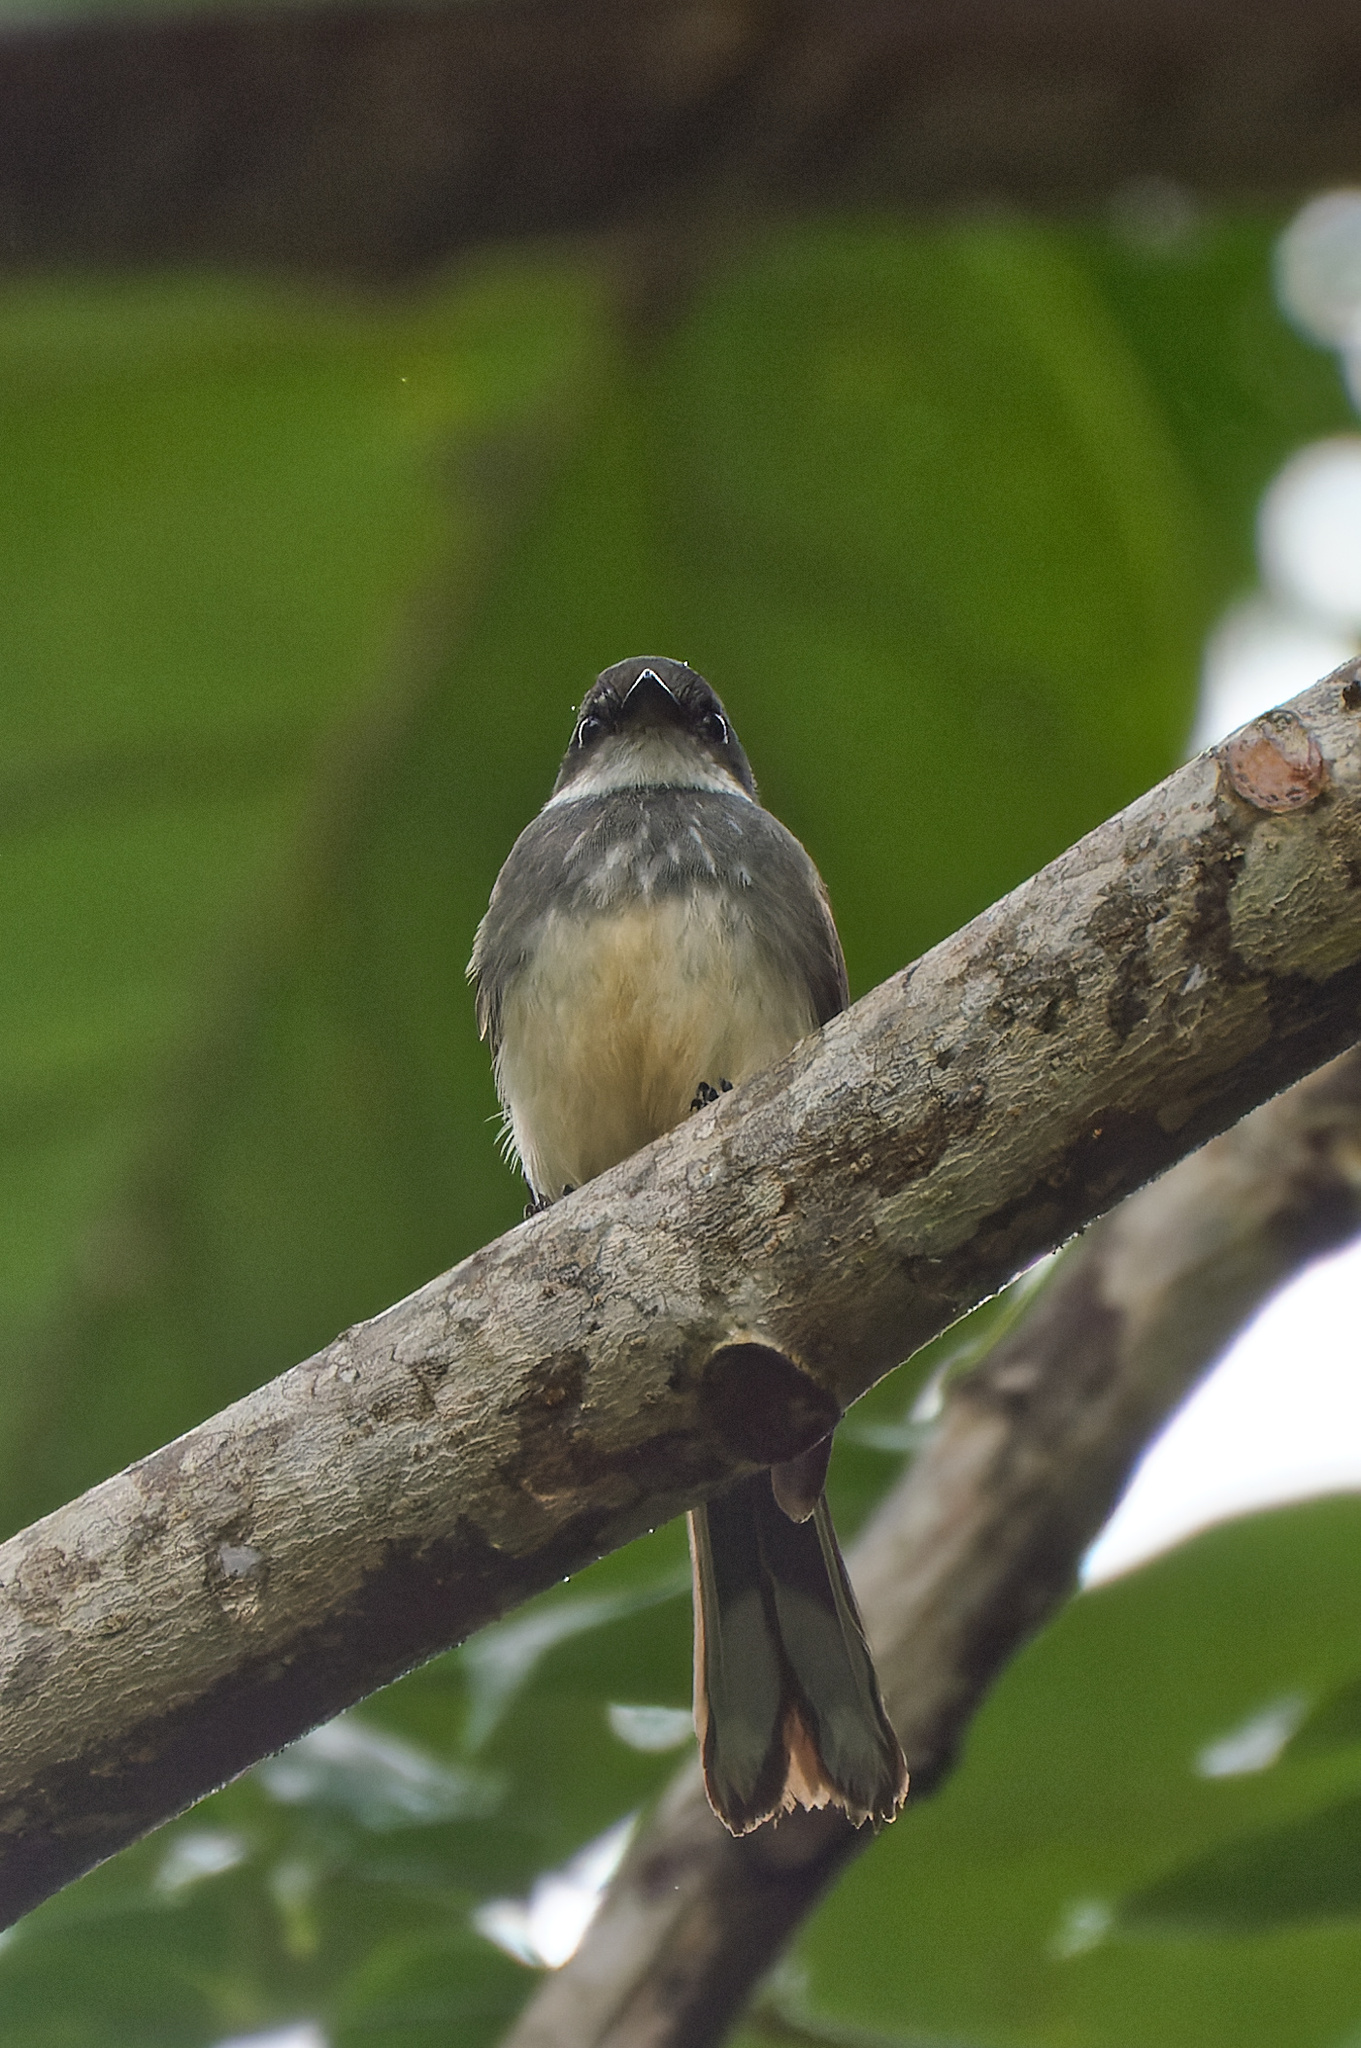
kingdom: Animalia
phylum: Chordata
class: Aves
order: Passeriformes
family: Rhipiduridae
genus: Rhipidura
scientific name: Rhipidura rufiventris
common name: Northern fantail
